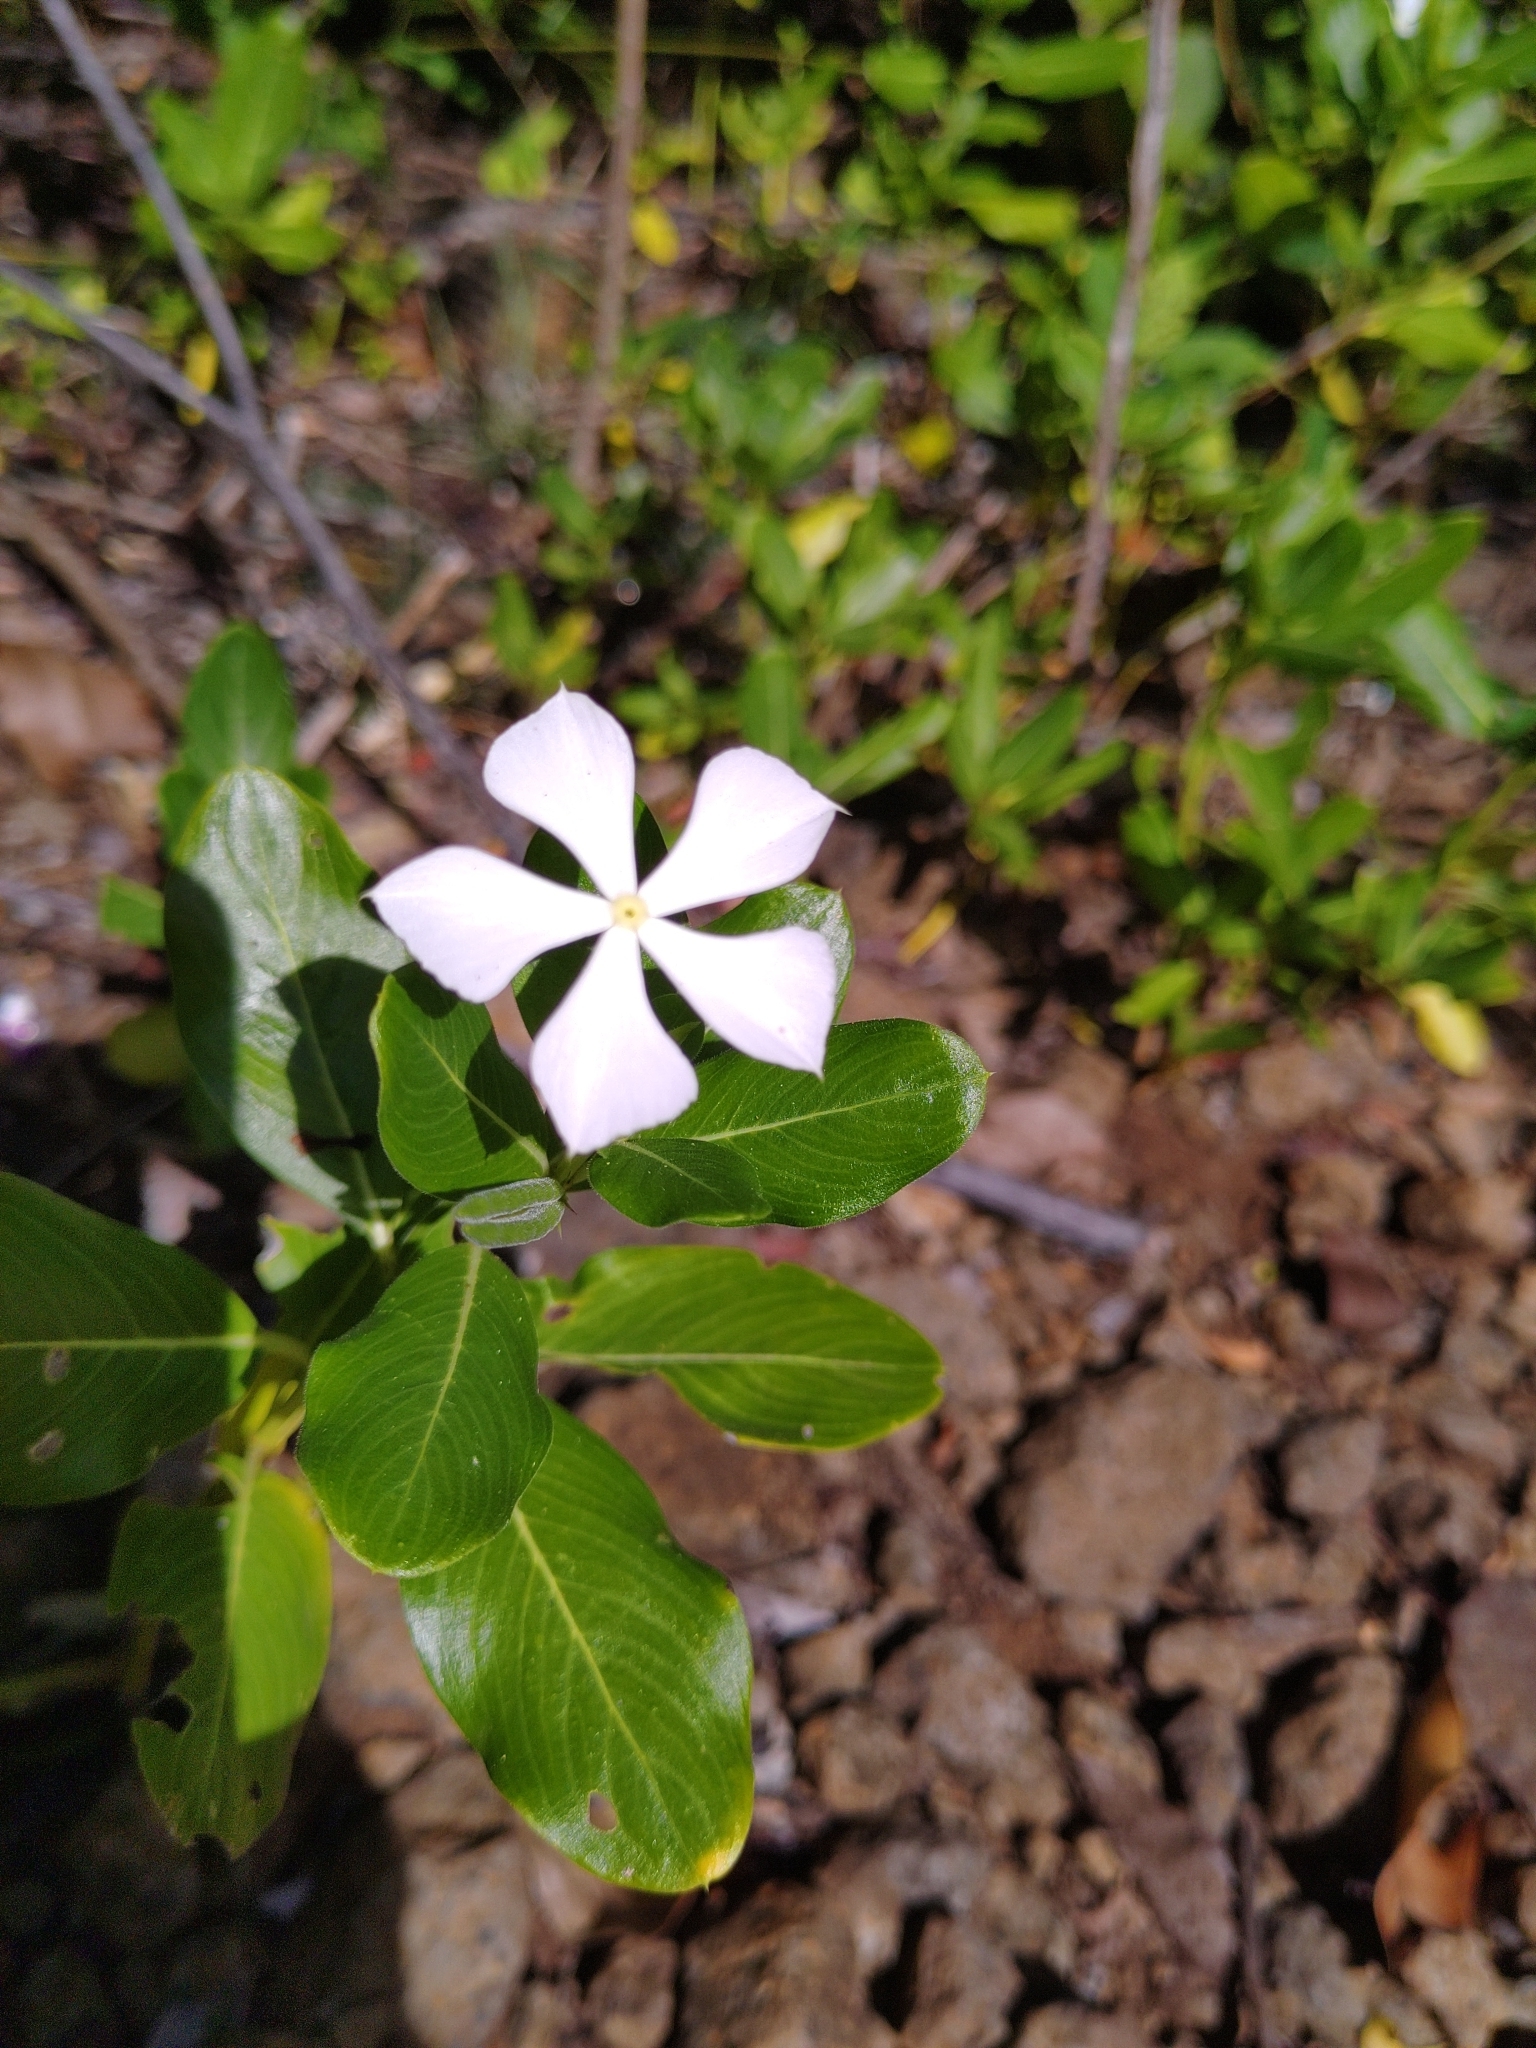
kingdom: Plantae
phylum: Tracheophyta
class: Magnoliopsida
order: Gentianales
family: Apocynaceae
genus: Catharanthus
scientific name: Catharanthus roseus
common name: Madagascar periwinkle
